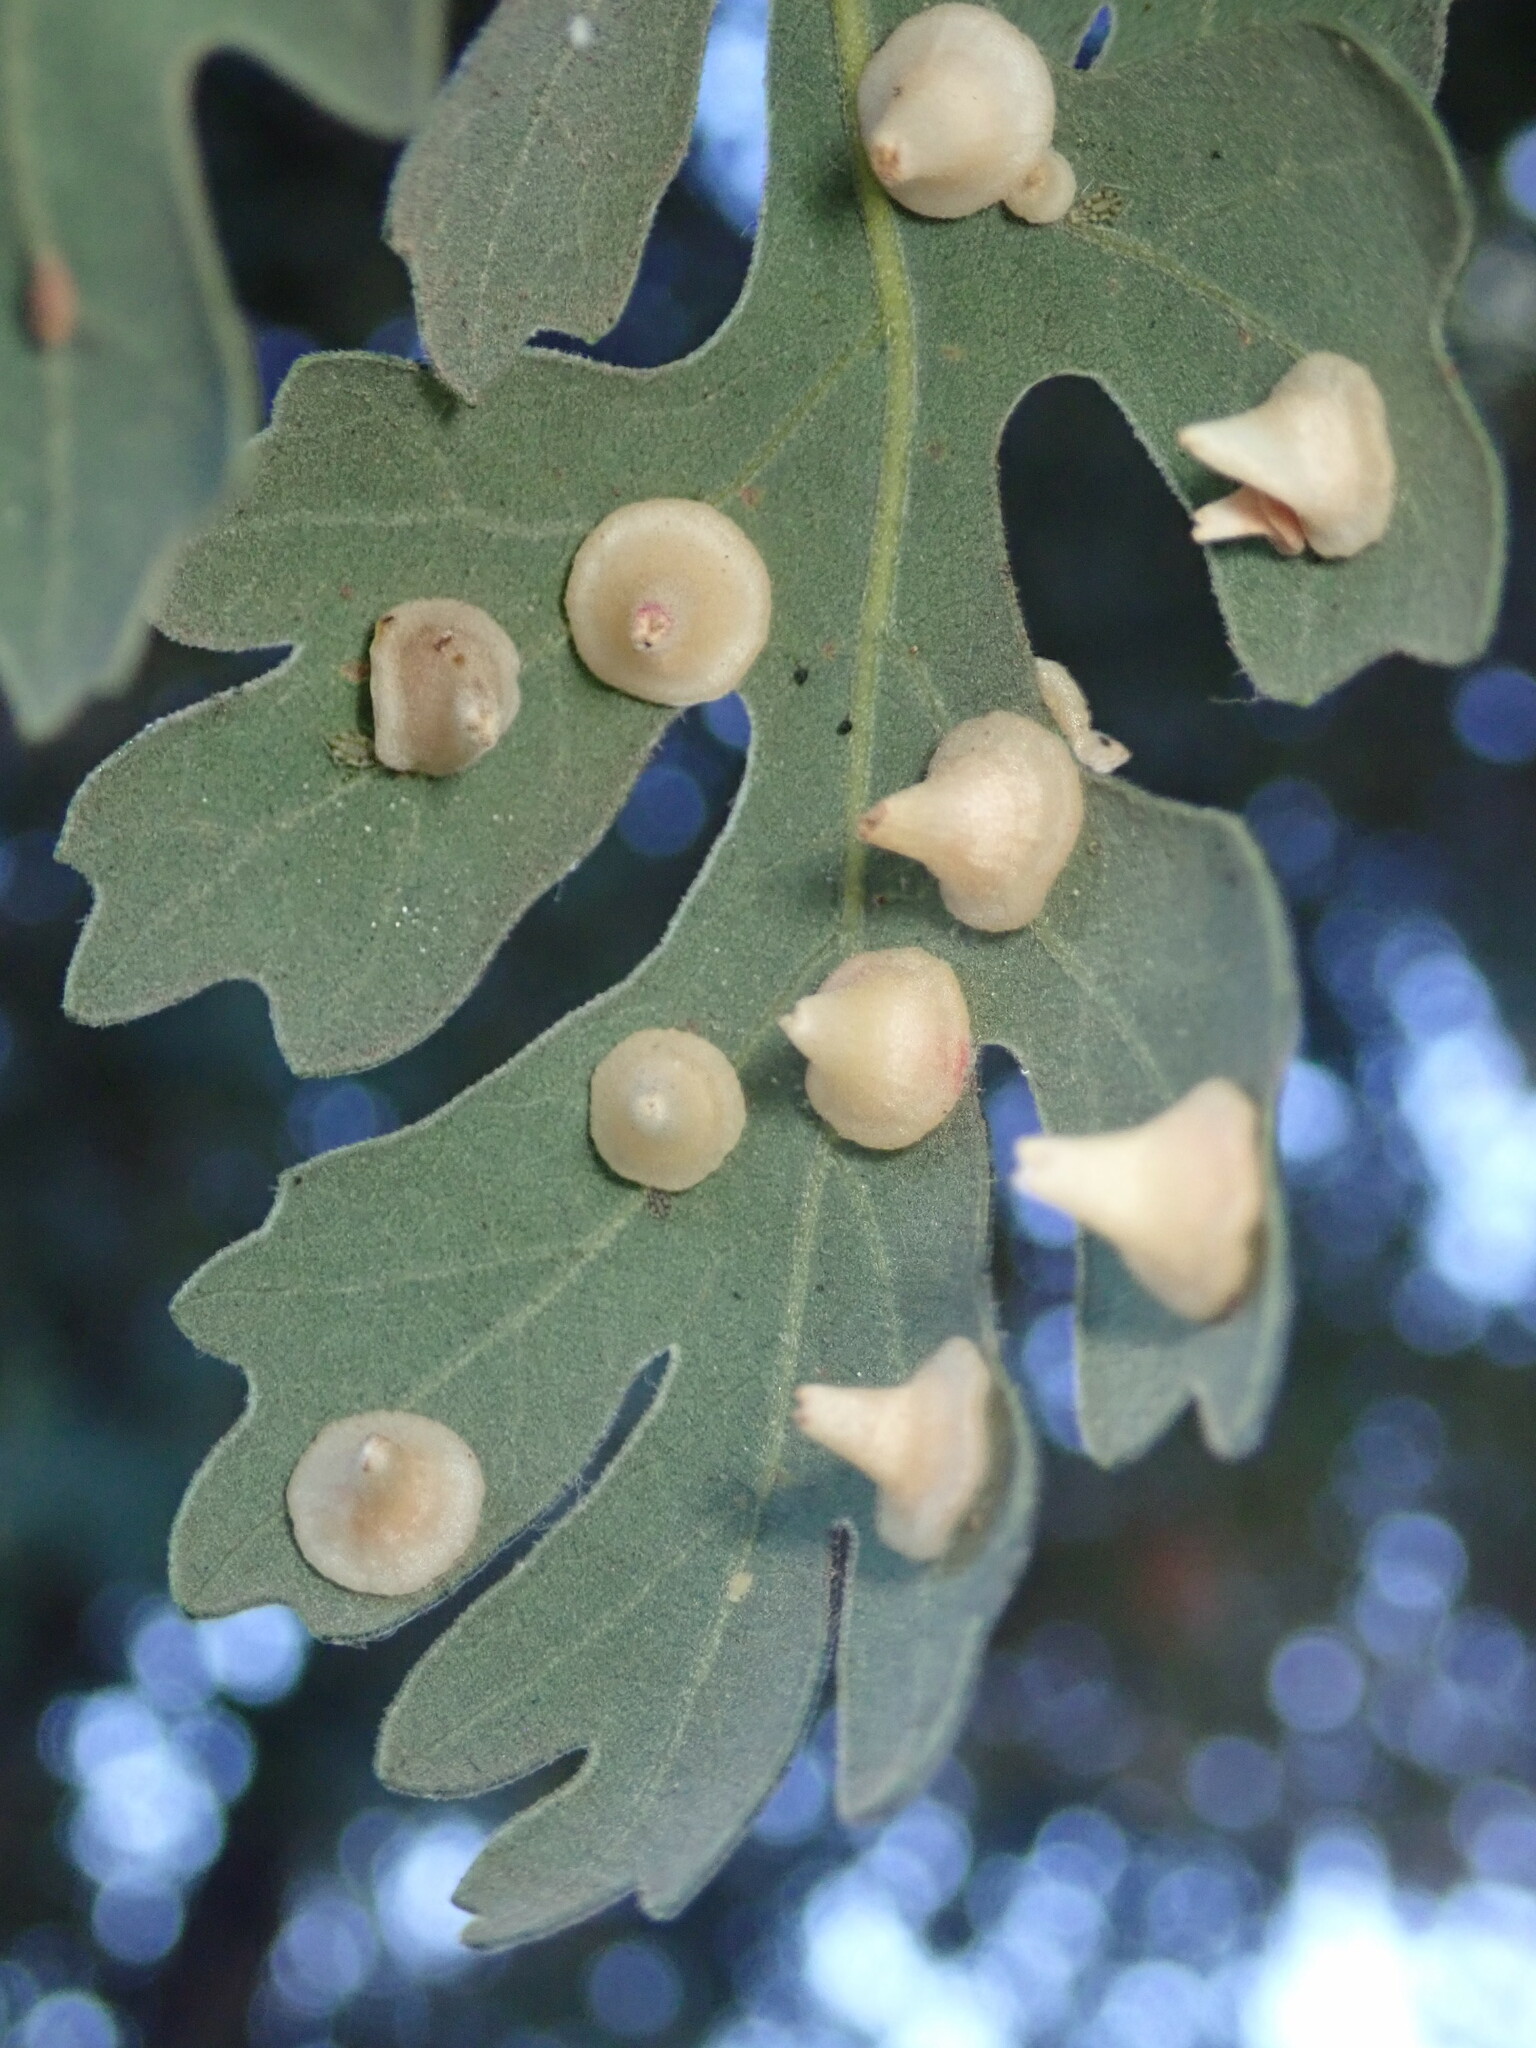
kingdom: Animalia
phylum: Arthropoda
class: Insecta
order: Hymenoptera
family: Cynipidae
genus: Andricus
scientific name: Andricus
